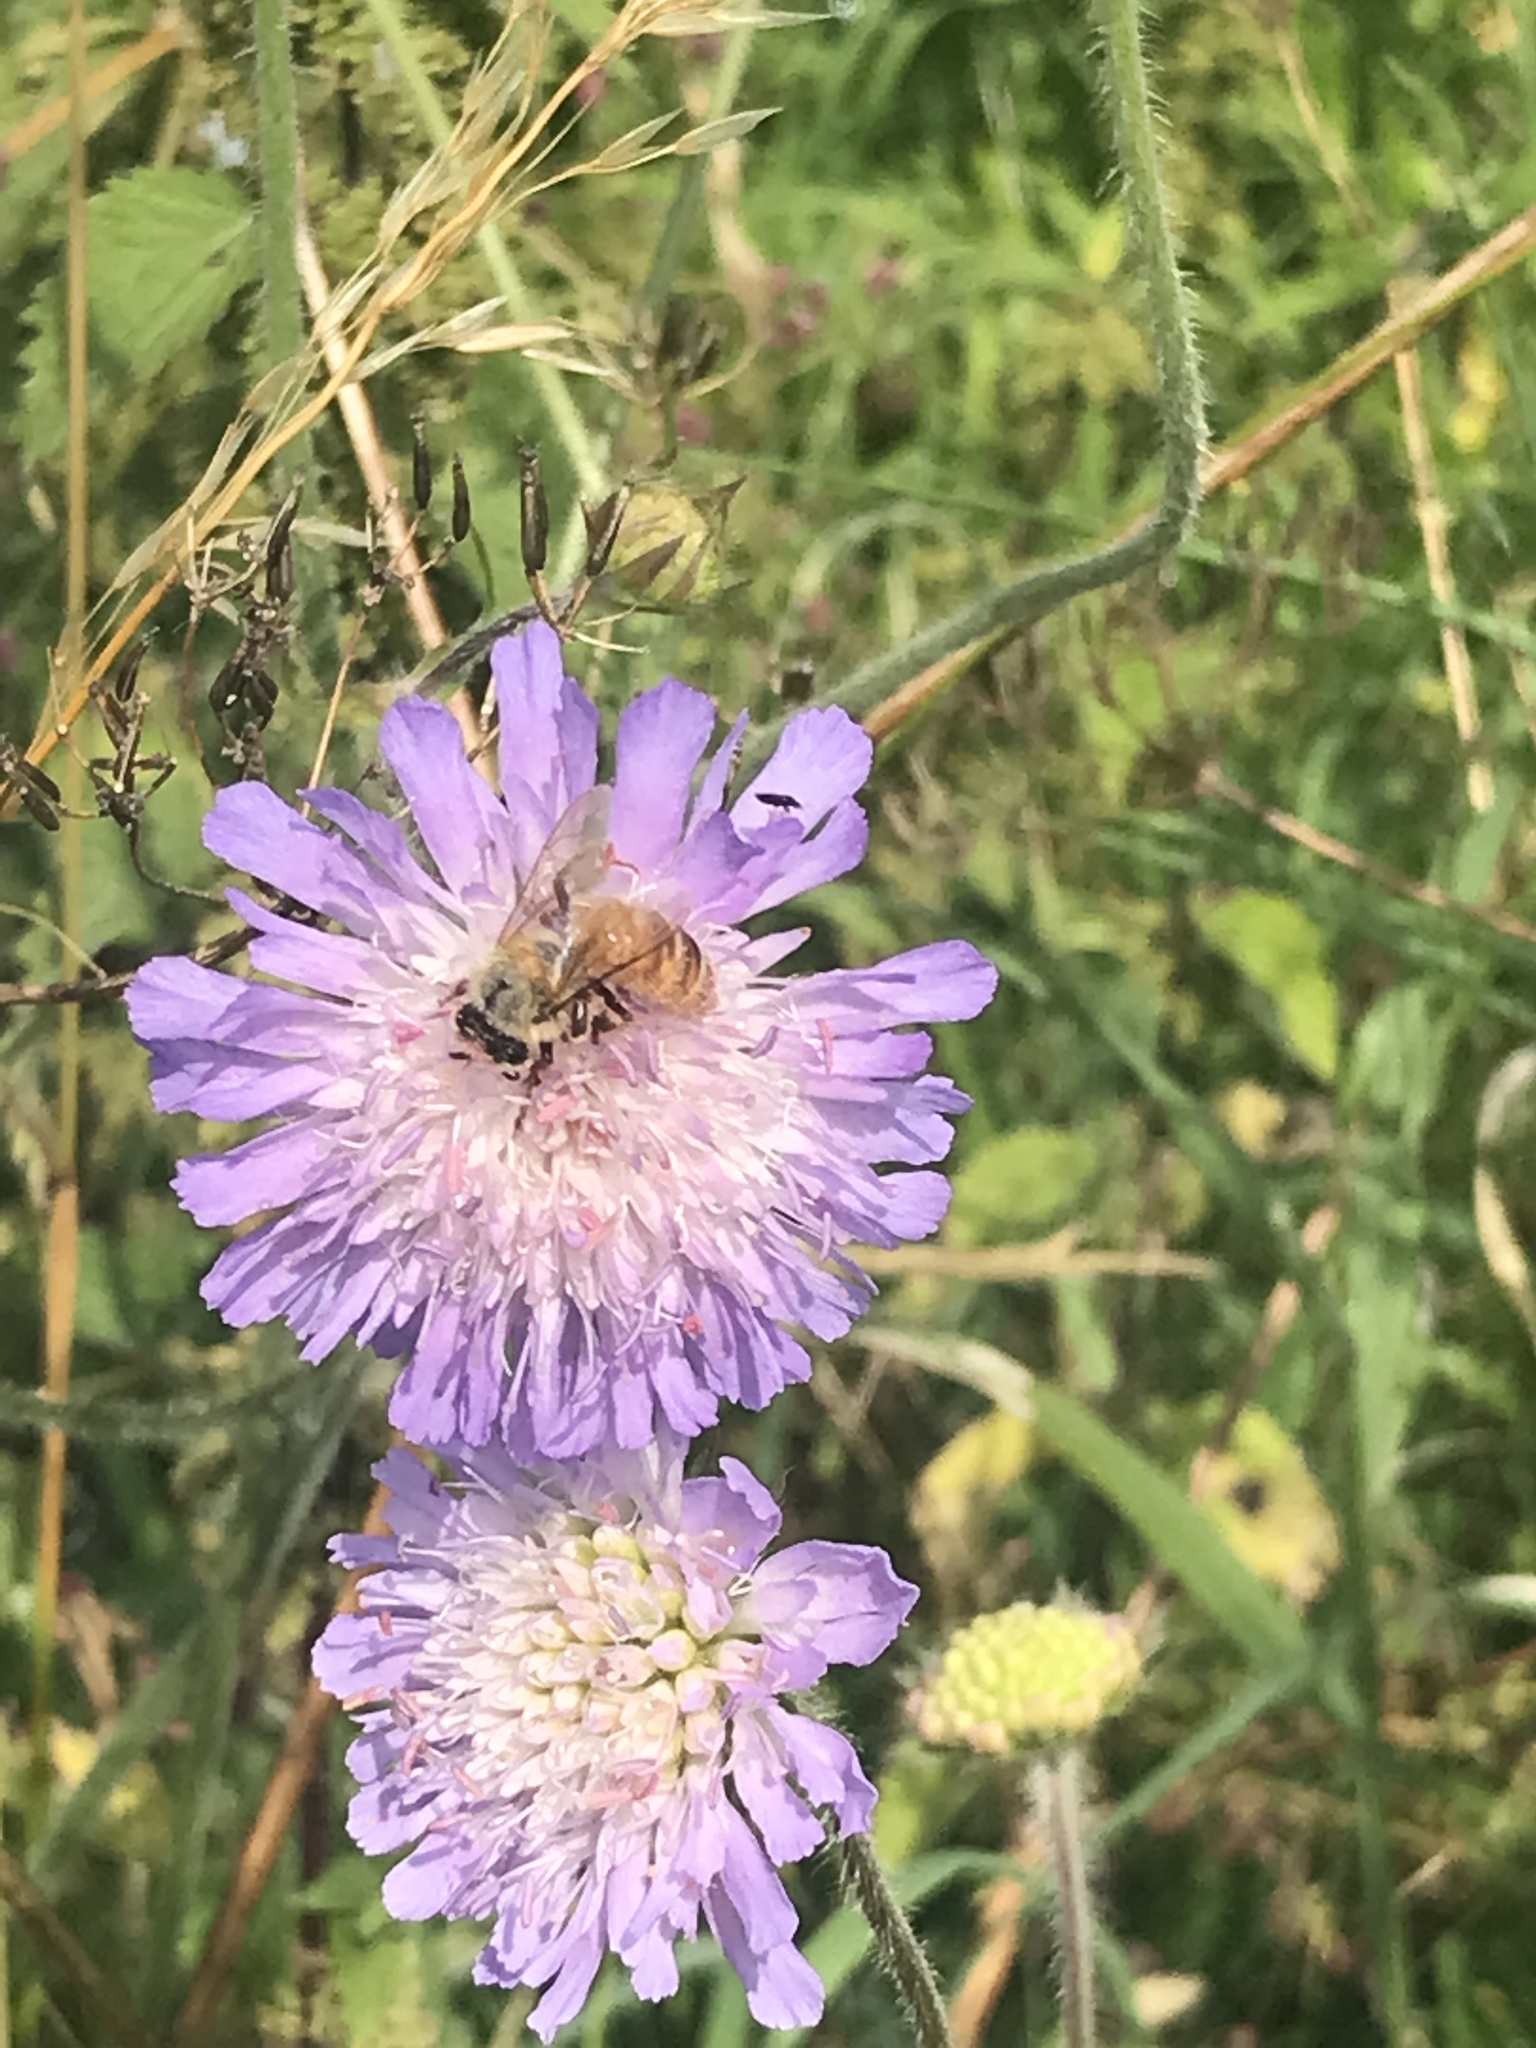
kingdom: Animalia
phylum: Arthropoda
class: Insecta
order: Hymenoptera
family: Apidae
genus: Apis
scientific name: Apis mellifera
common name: Honey bee
